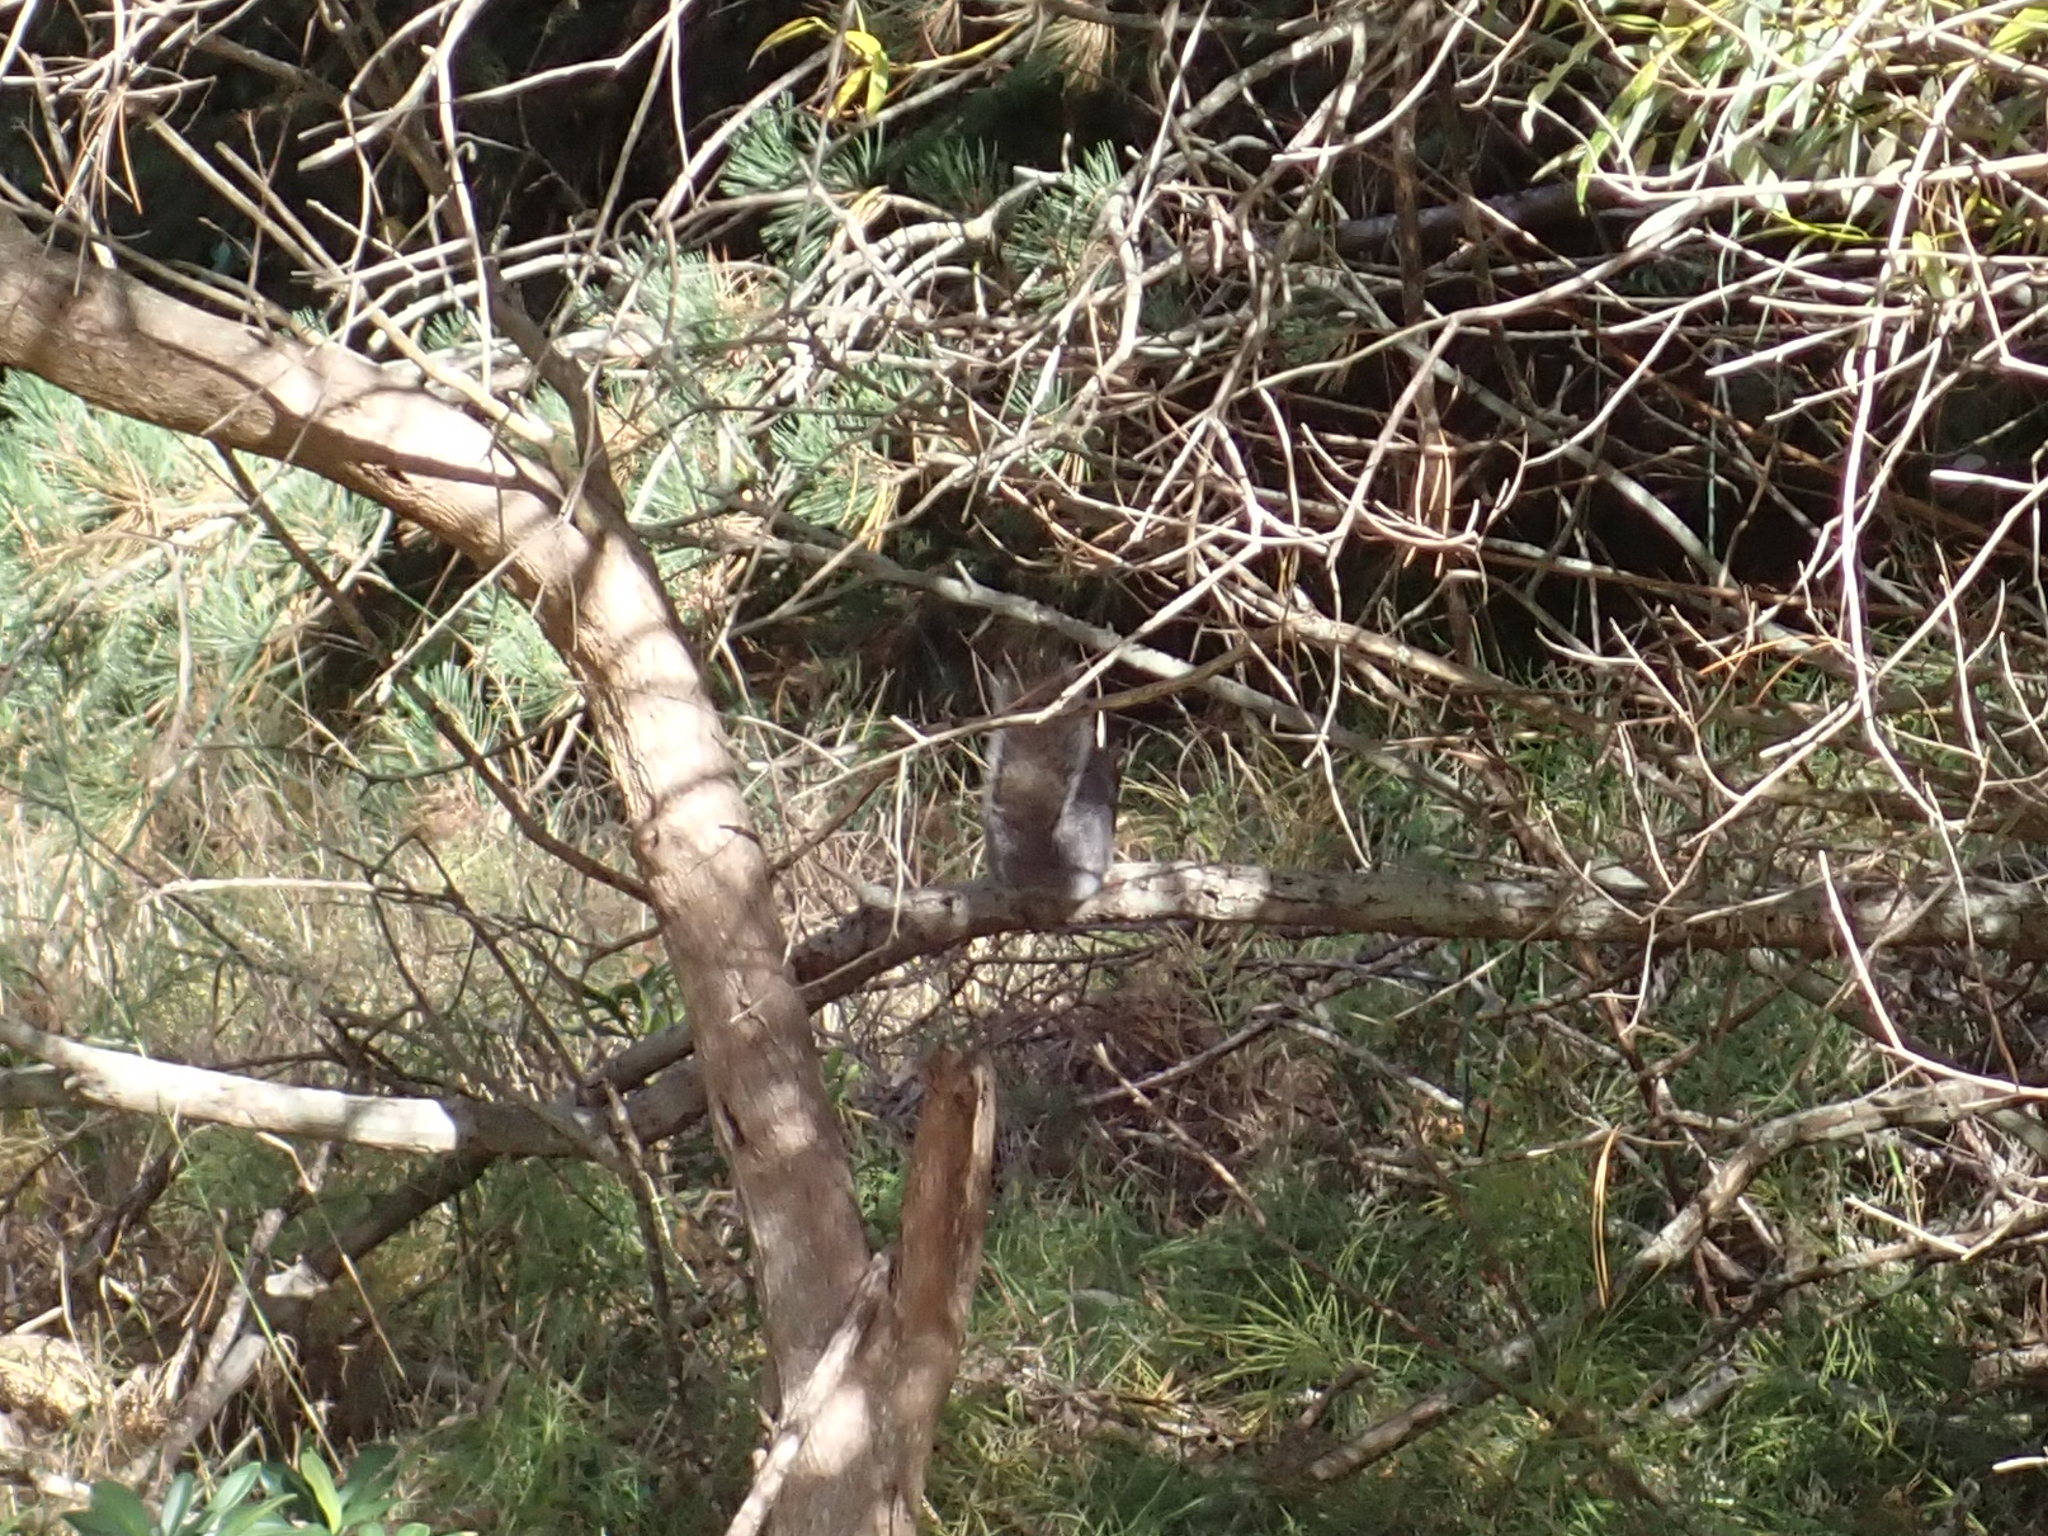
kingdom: Animalia
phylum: Chordata
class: Mammalia
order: Rodentia
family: Sciuridae
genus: Sciurus
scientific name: Sciurus carolinensis
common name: Eastern gray squirrel
